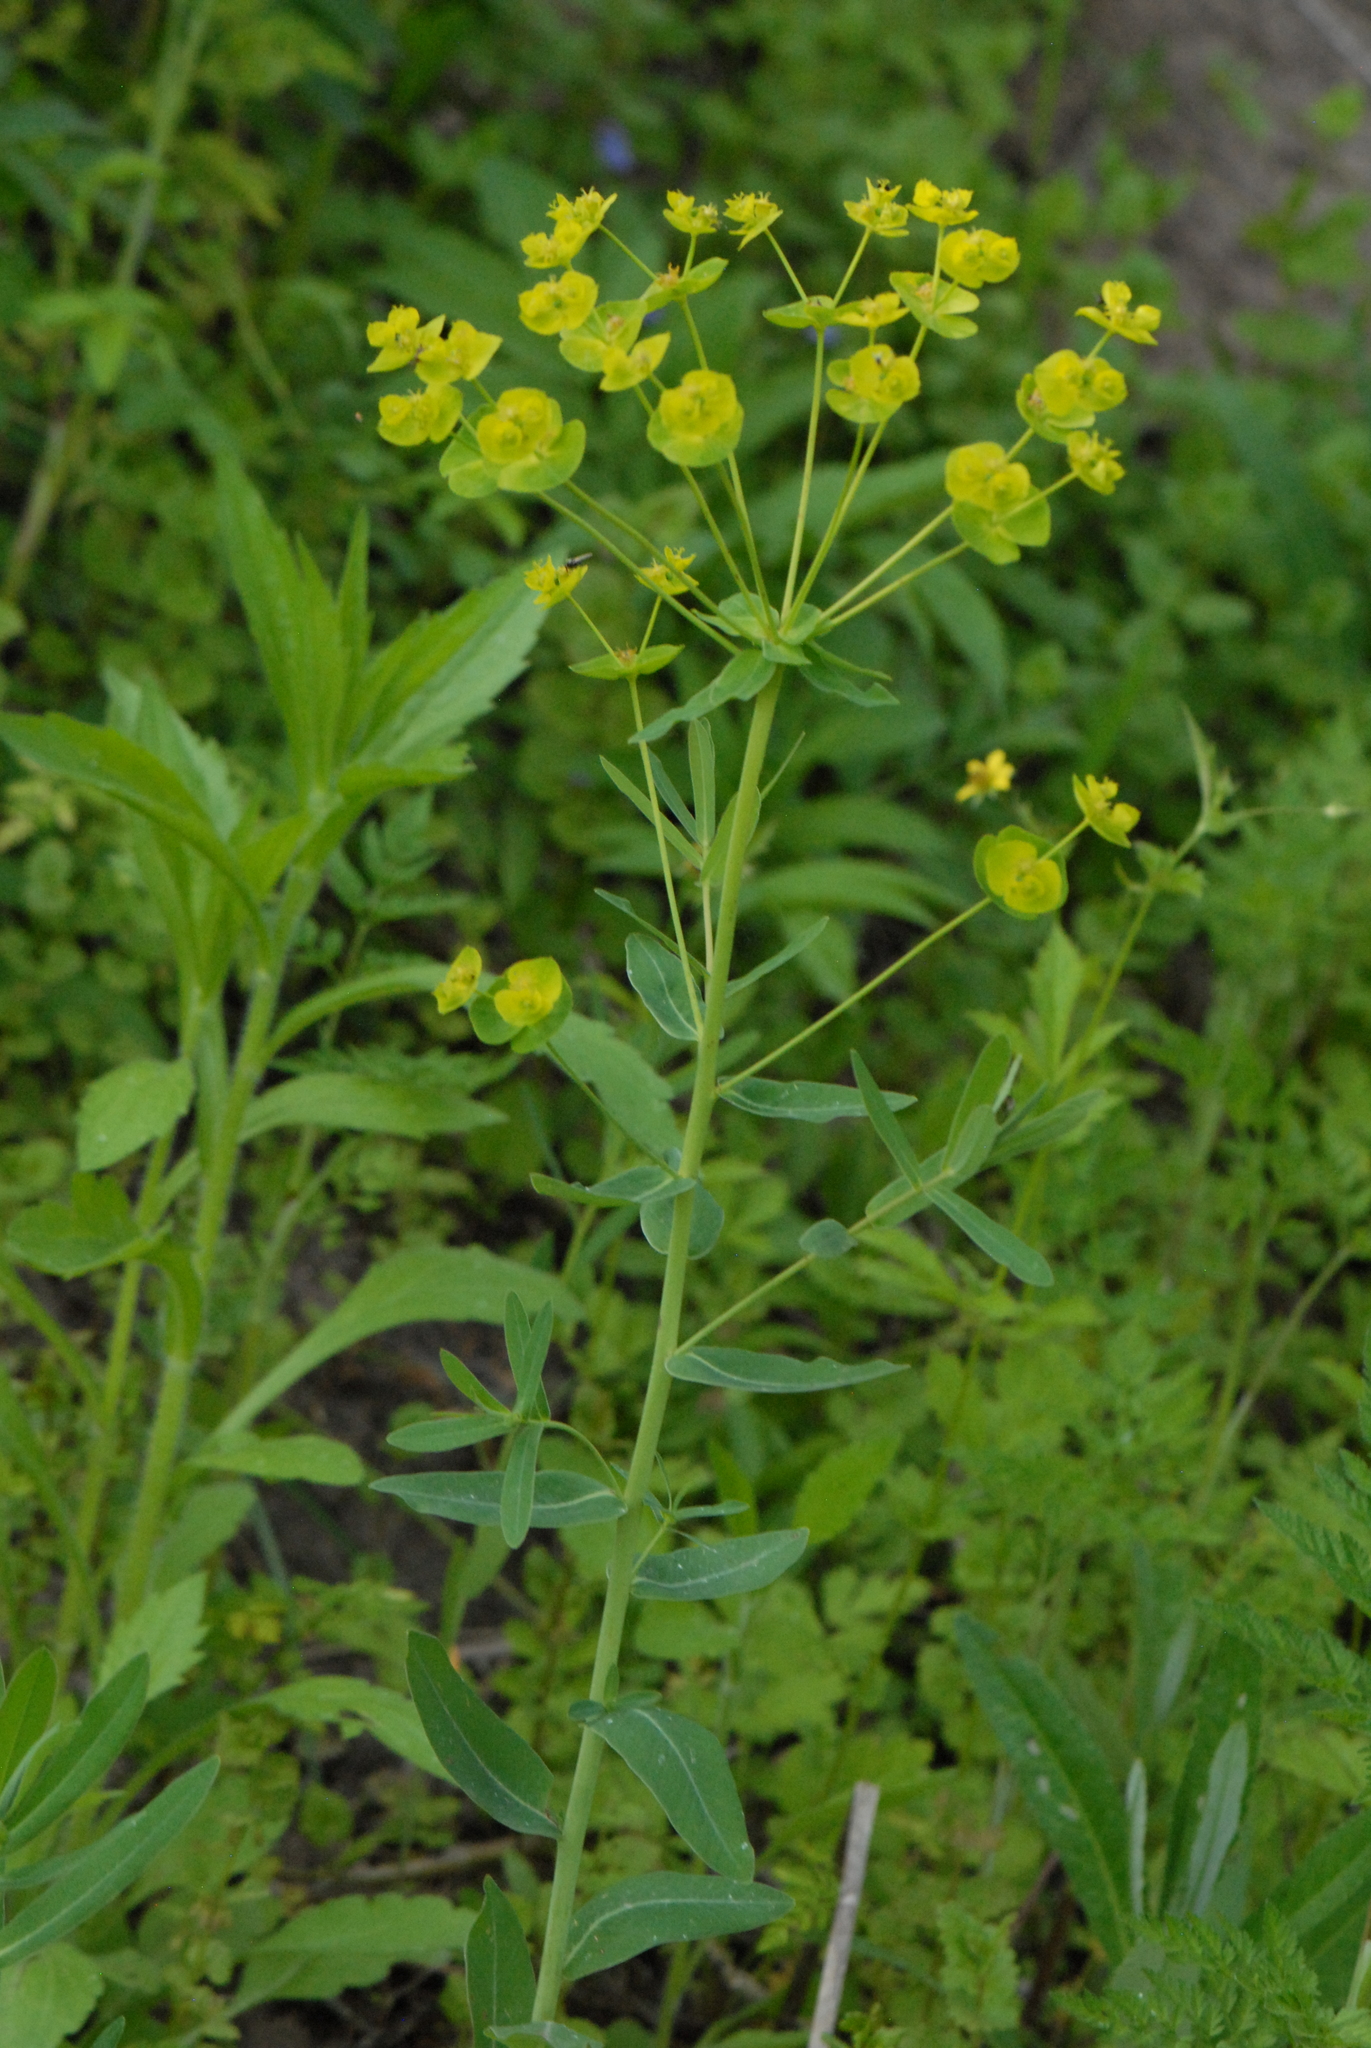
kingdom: Plantae
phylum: Tracheophyta
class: Magnoliopsida
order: Malpighiales
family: Euphorbiaceae
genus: Euphorbia
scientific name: Euphorbia iberica
